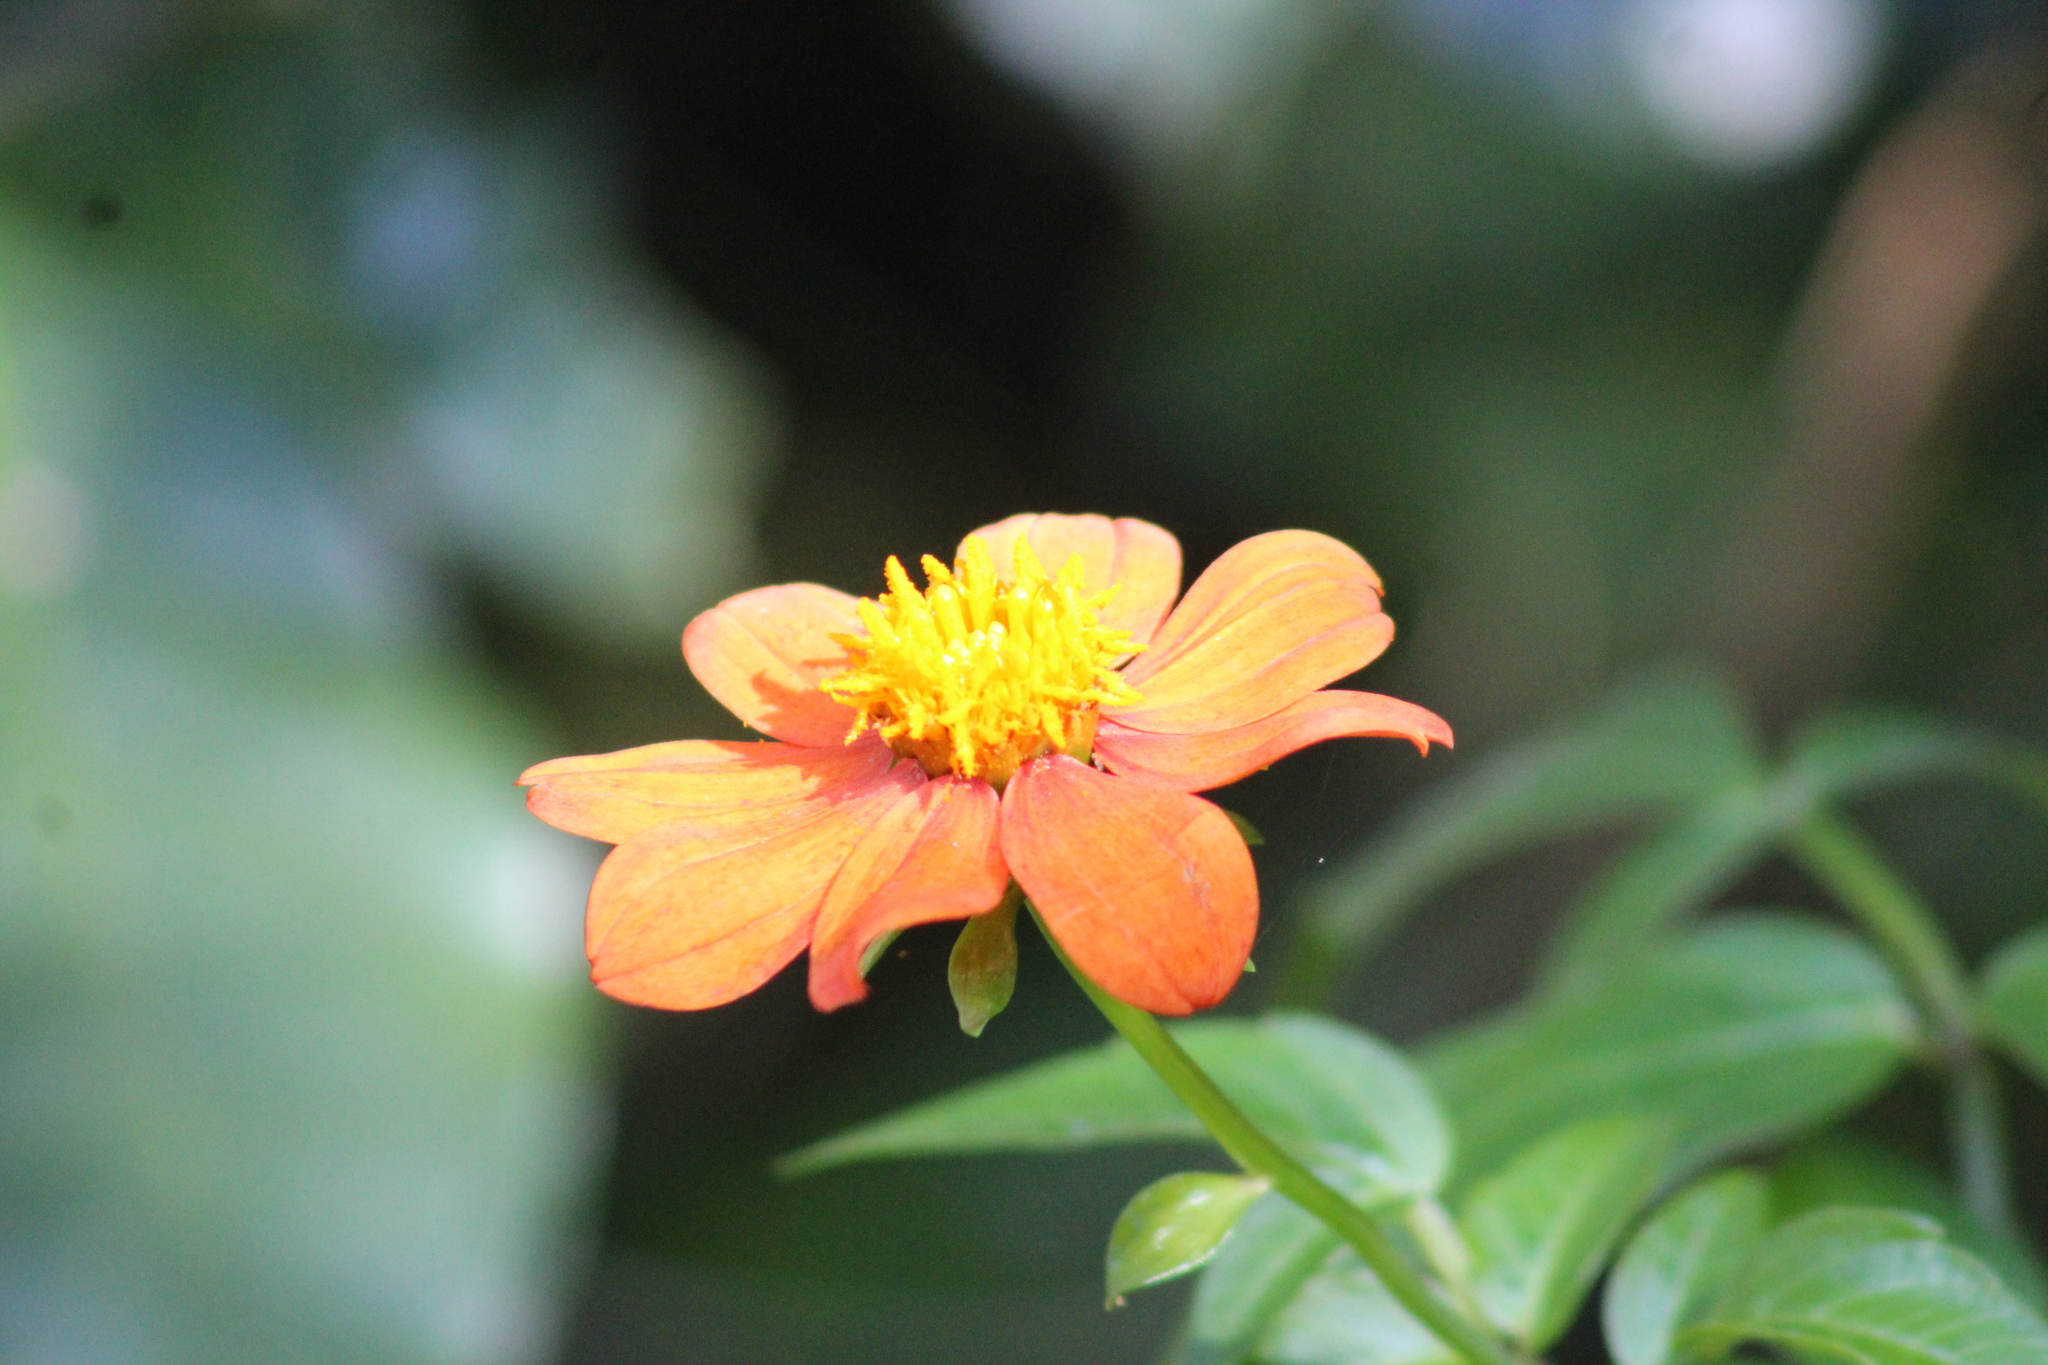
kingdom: Plantae
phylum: Tracheophyta
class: Magnoliopsida
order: Asterales
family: Asteraceae
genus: Dahlia
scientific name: Dahlia coccinea
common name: Red dahlia
